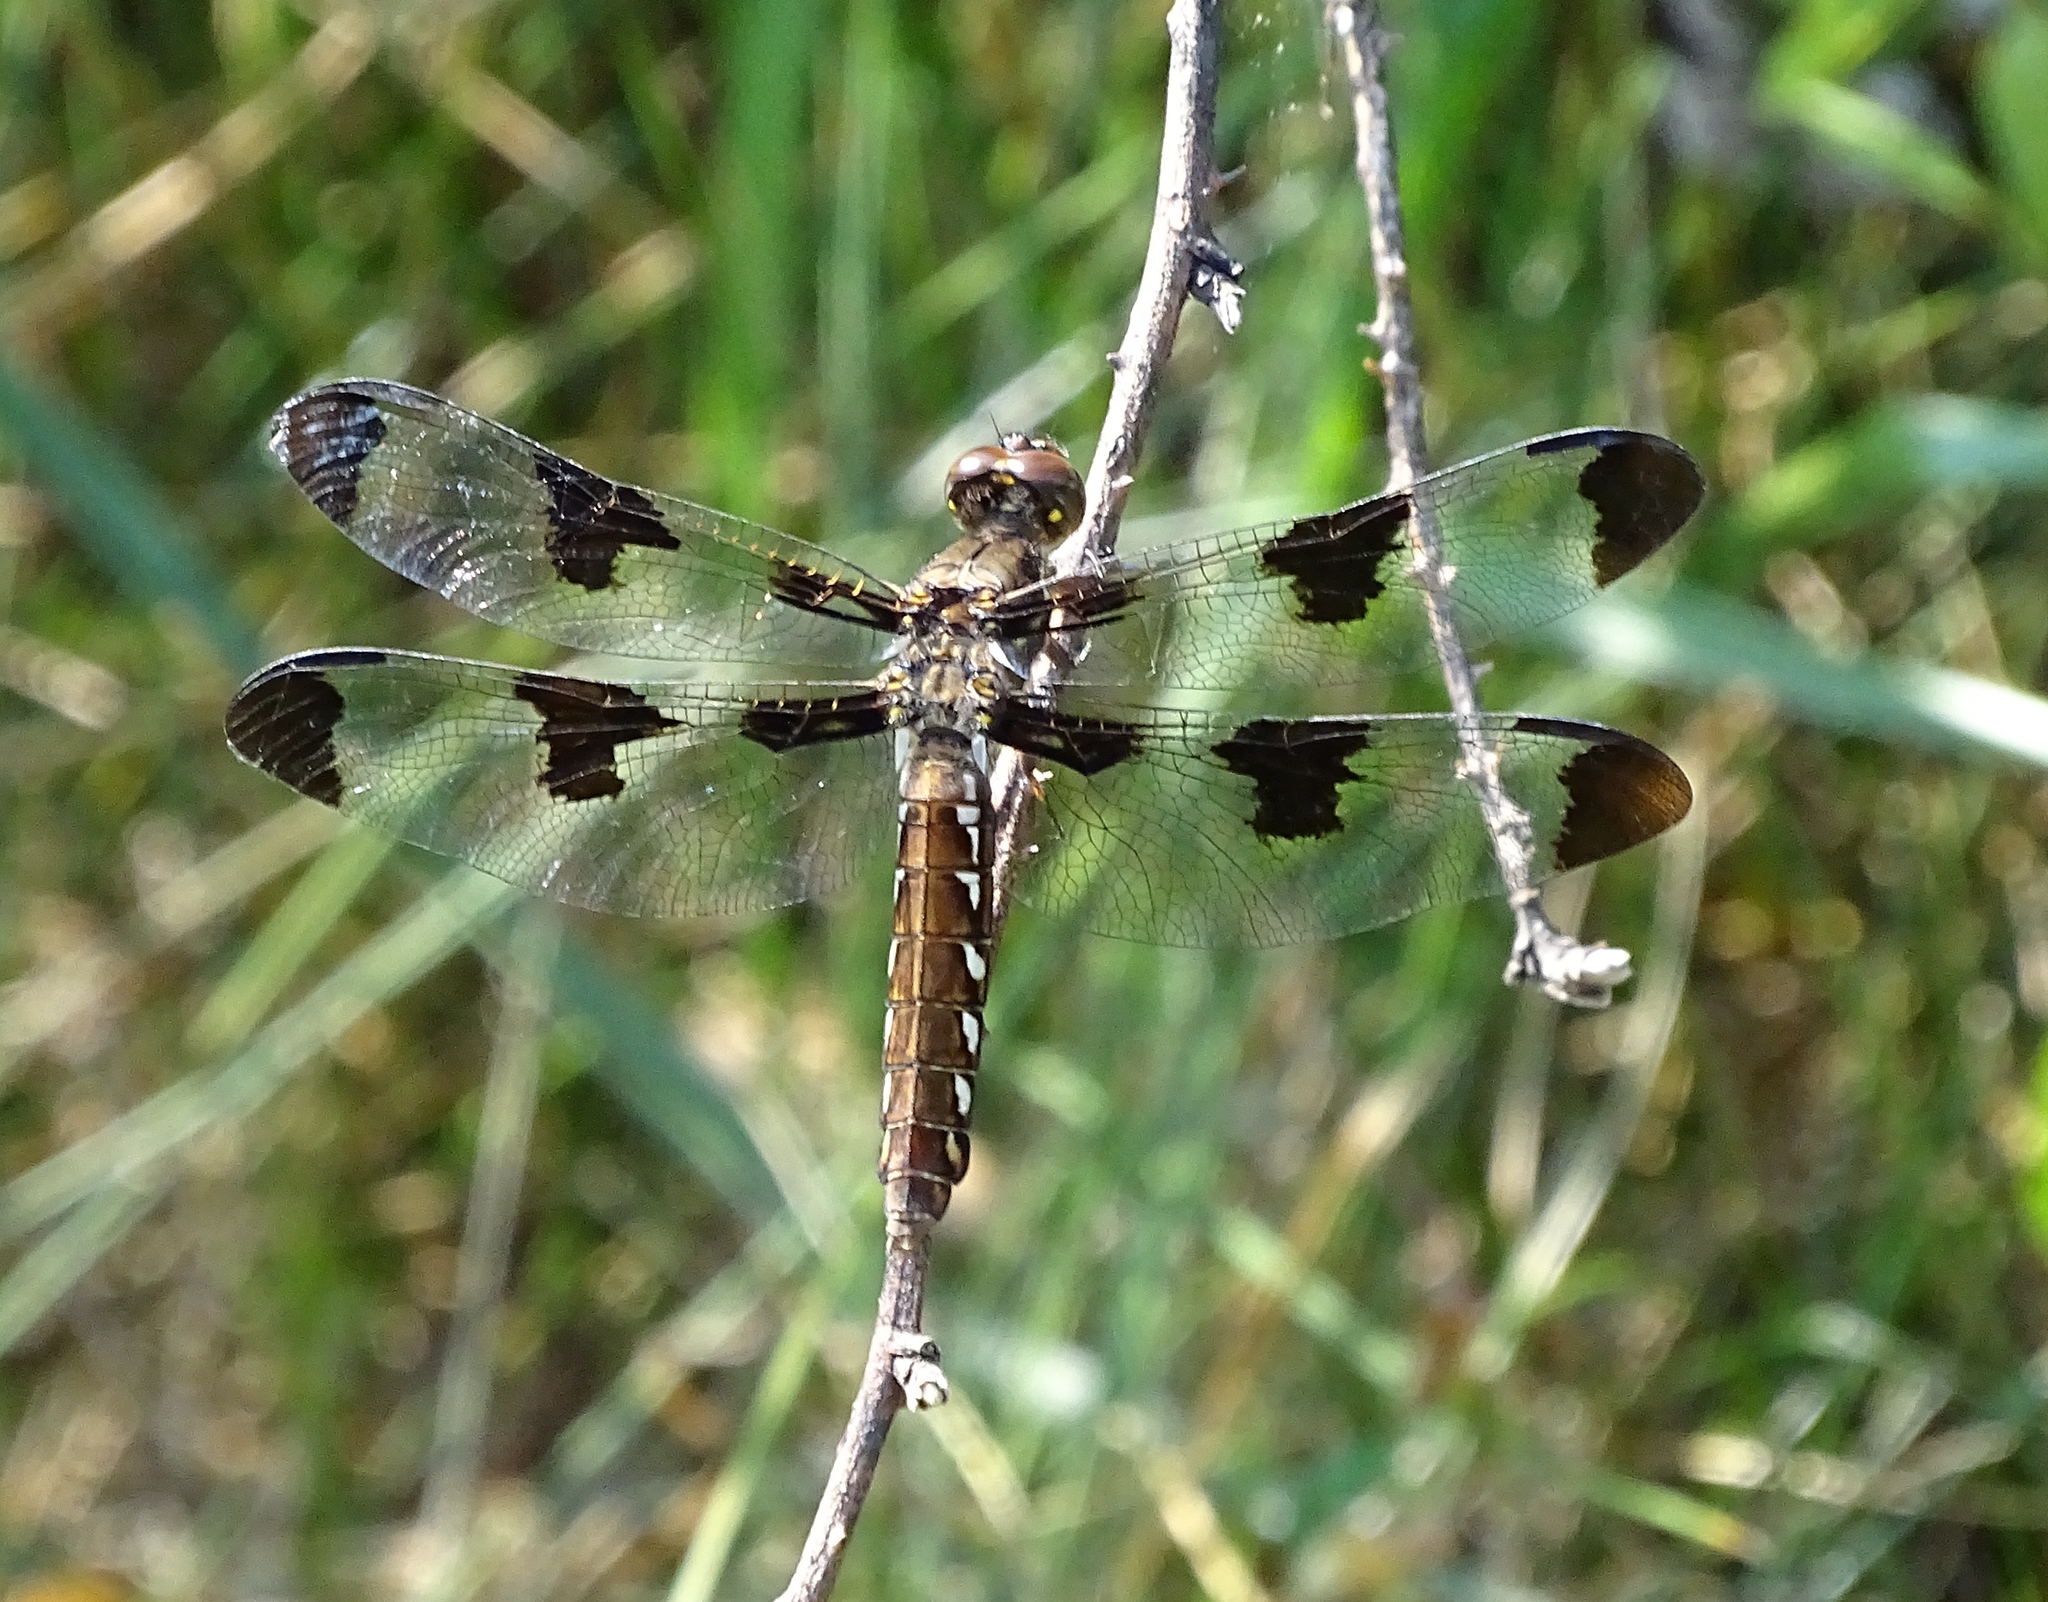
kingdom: Animalia
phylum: Arthropoda
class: Insecta
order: Odonata
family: Libellulidae
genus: Plathemis
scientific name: Plathemis lydia
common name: Common whitetail
